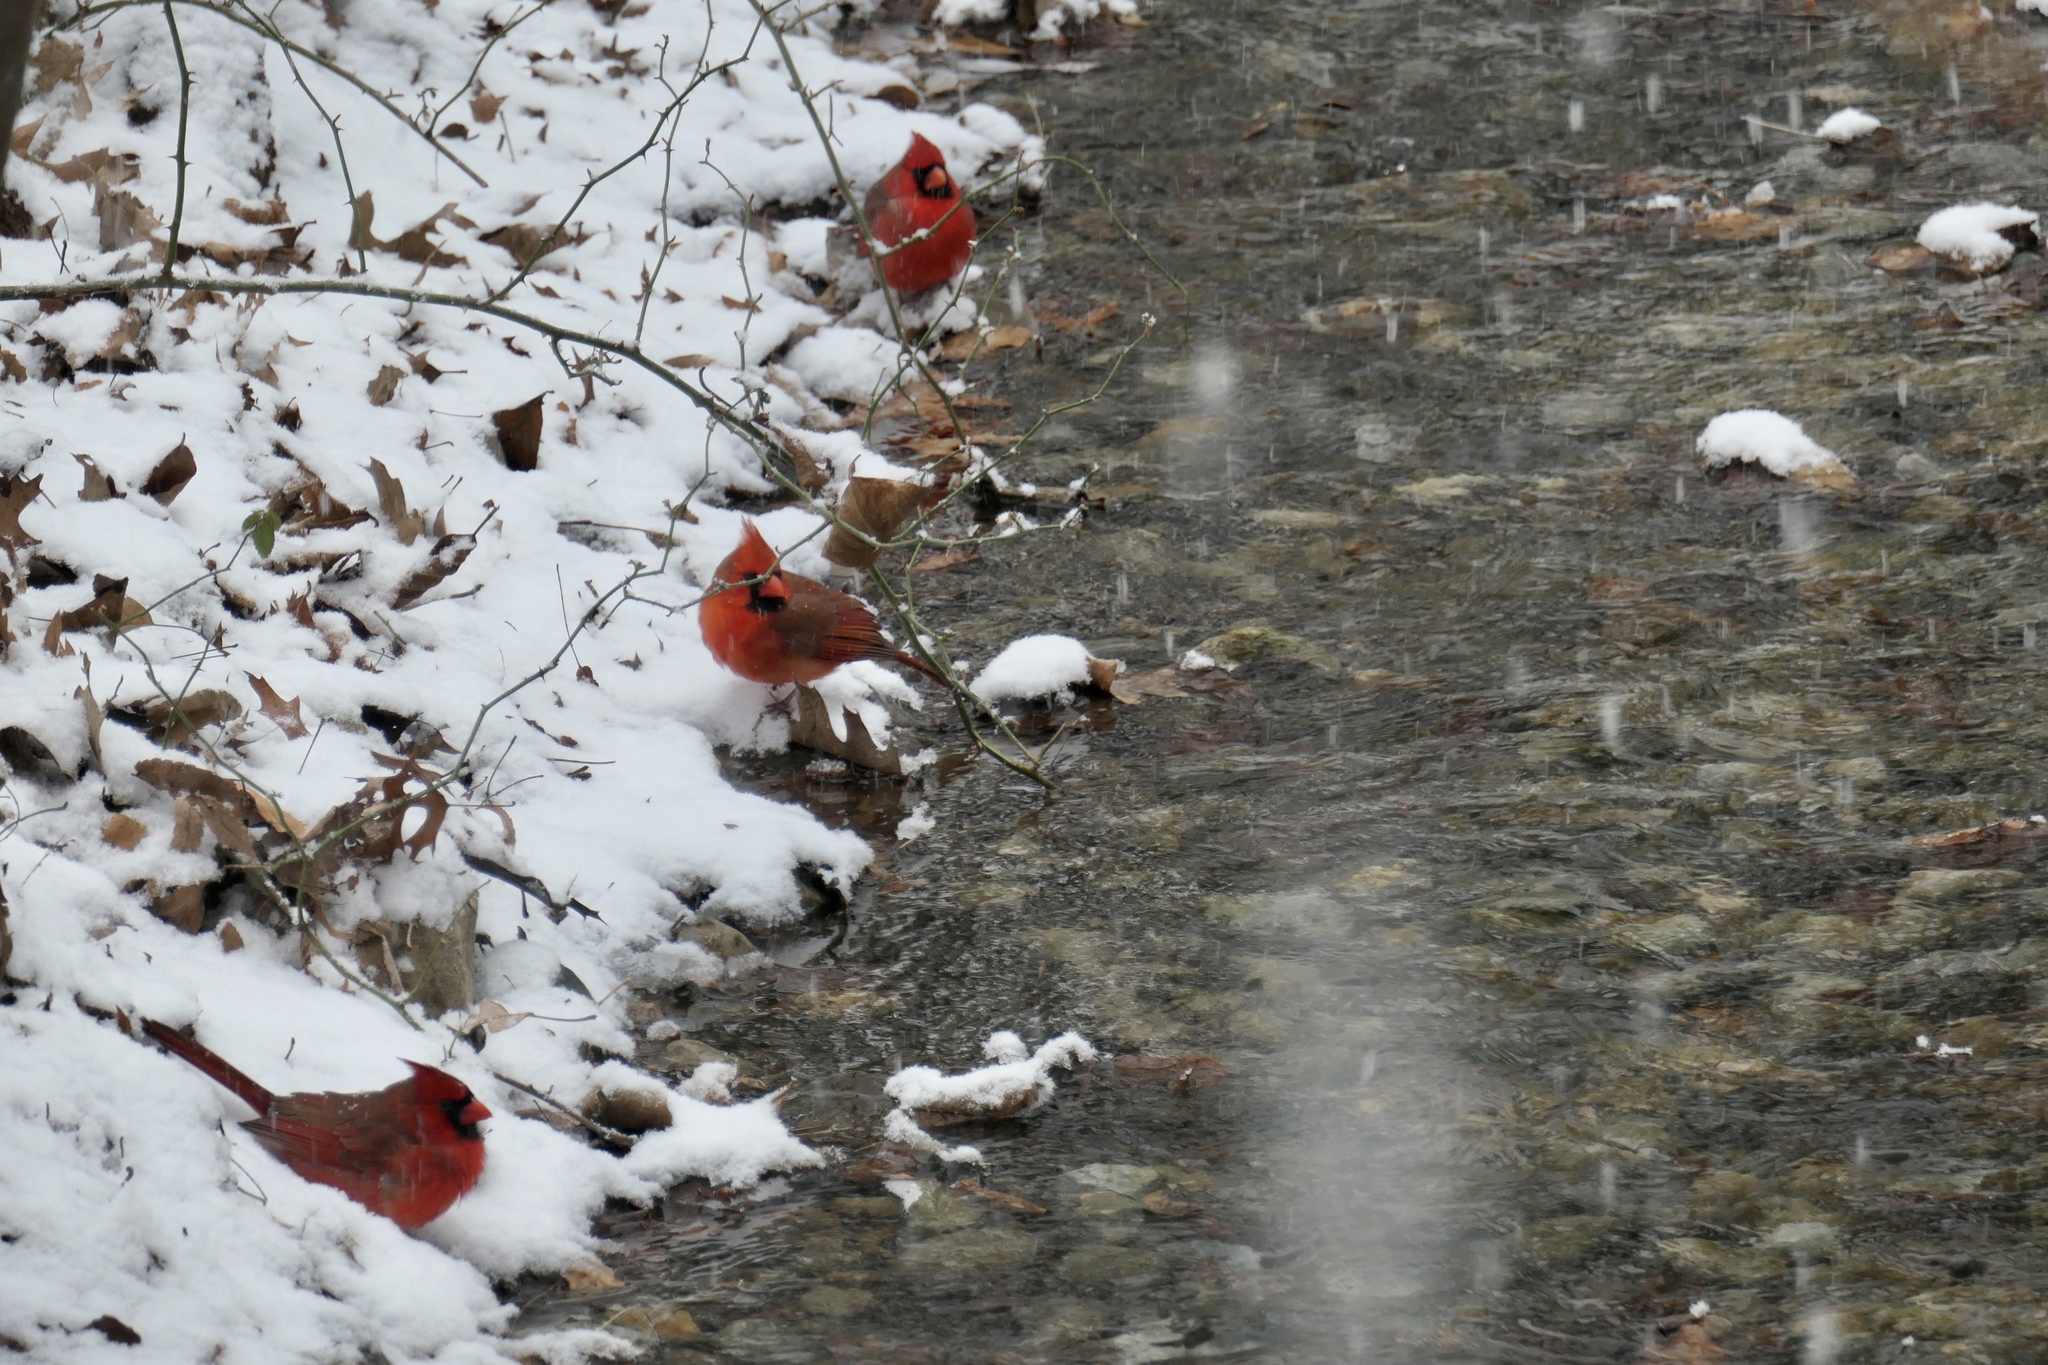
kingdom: Animalia
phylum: Chordata
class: Aves
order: Passeriformes
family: Cardinalidae
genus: Cardinalis
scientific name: Cardinalis cardinalis
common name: Northern cardinal
